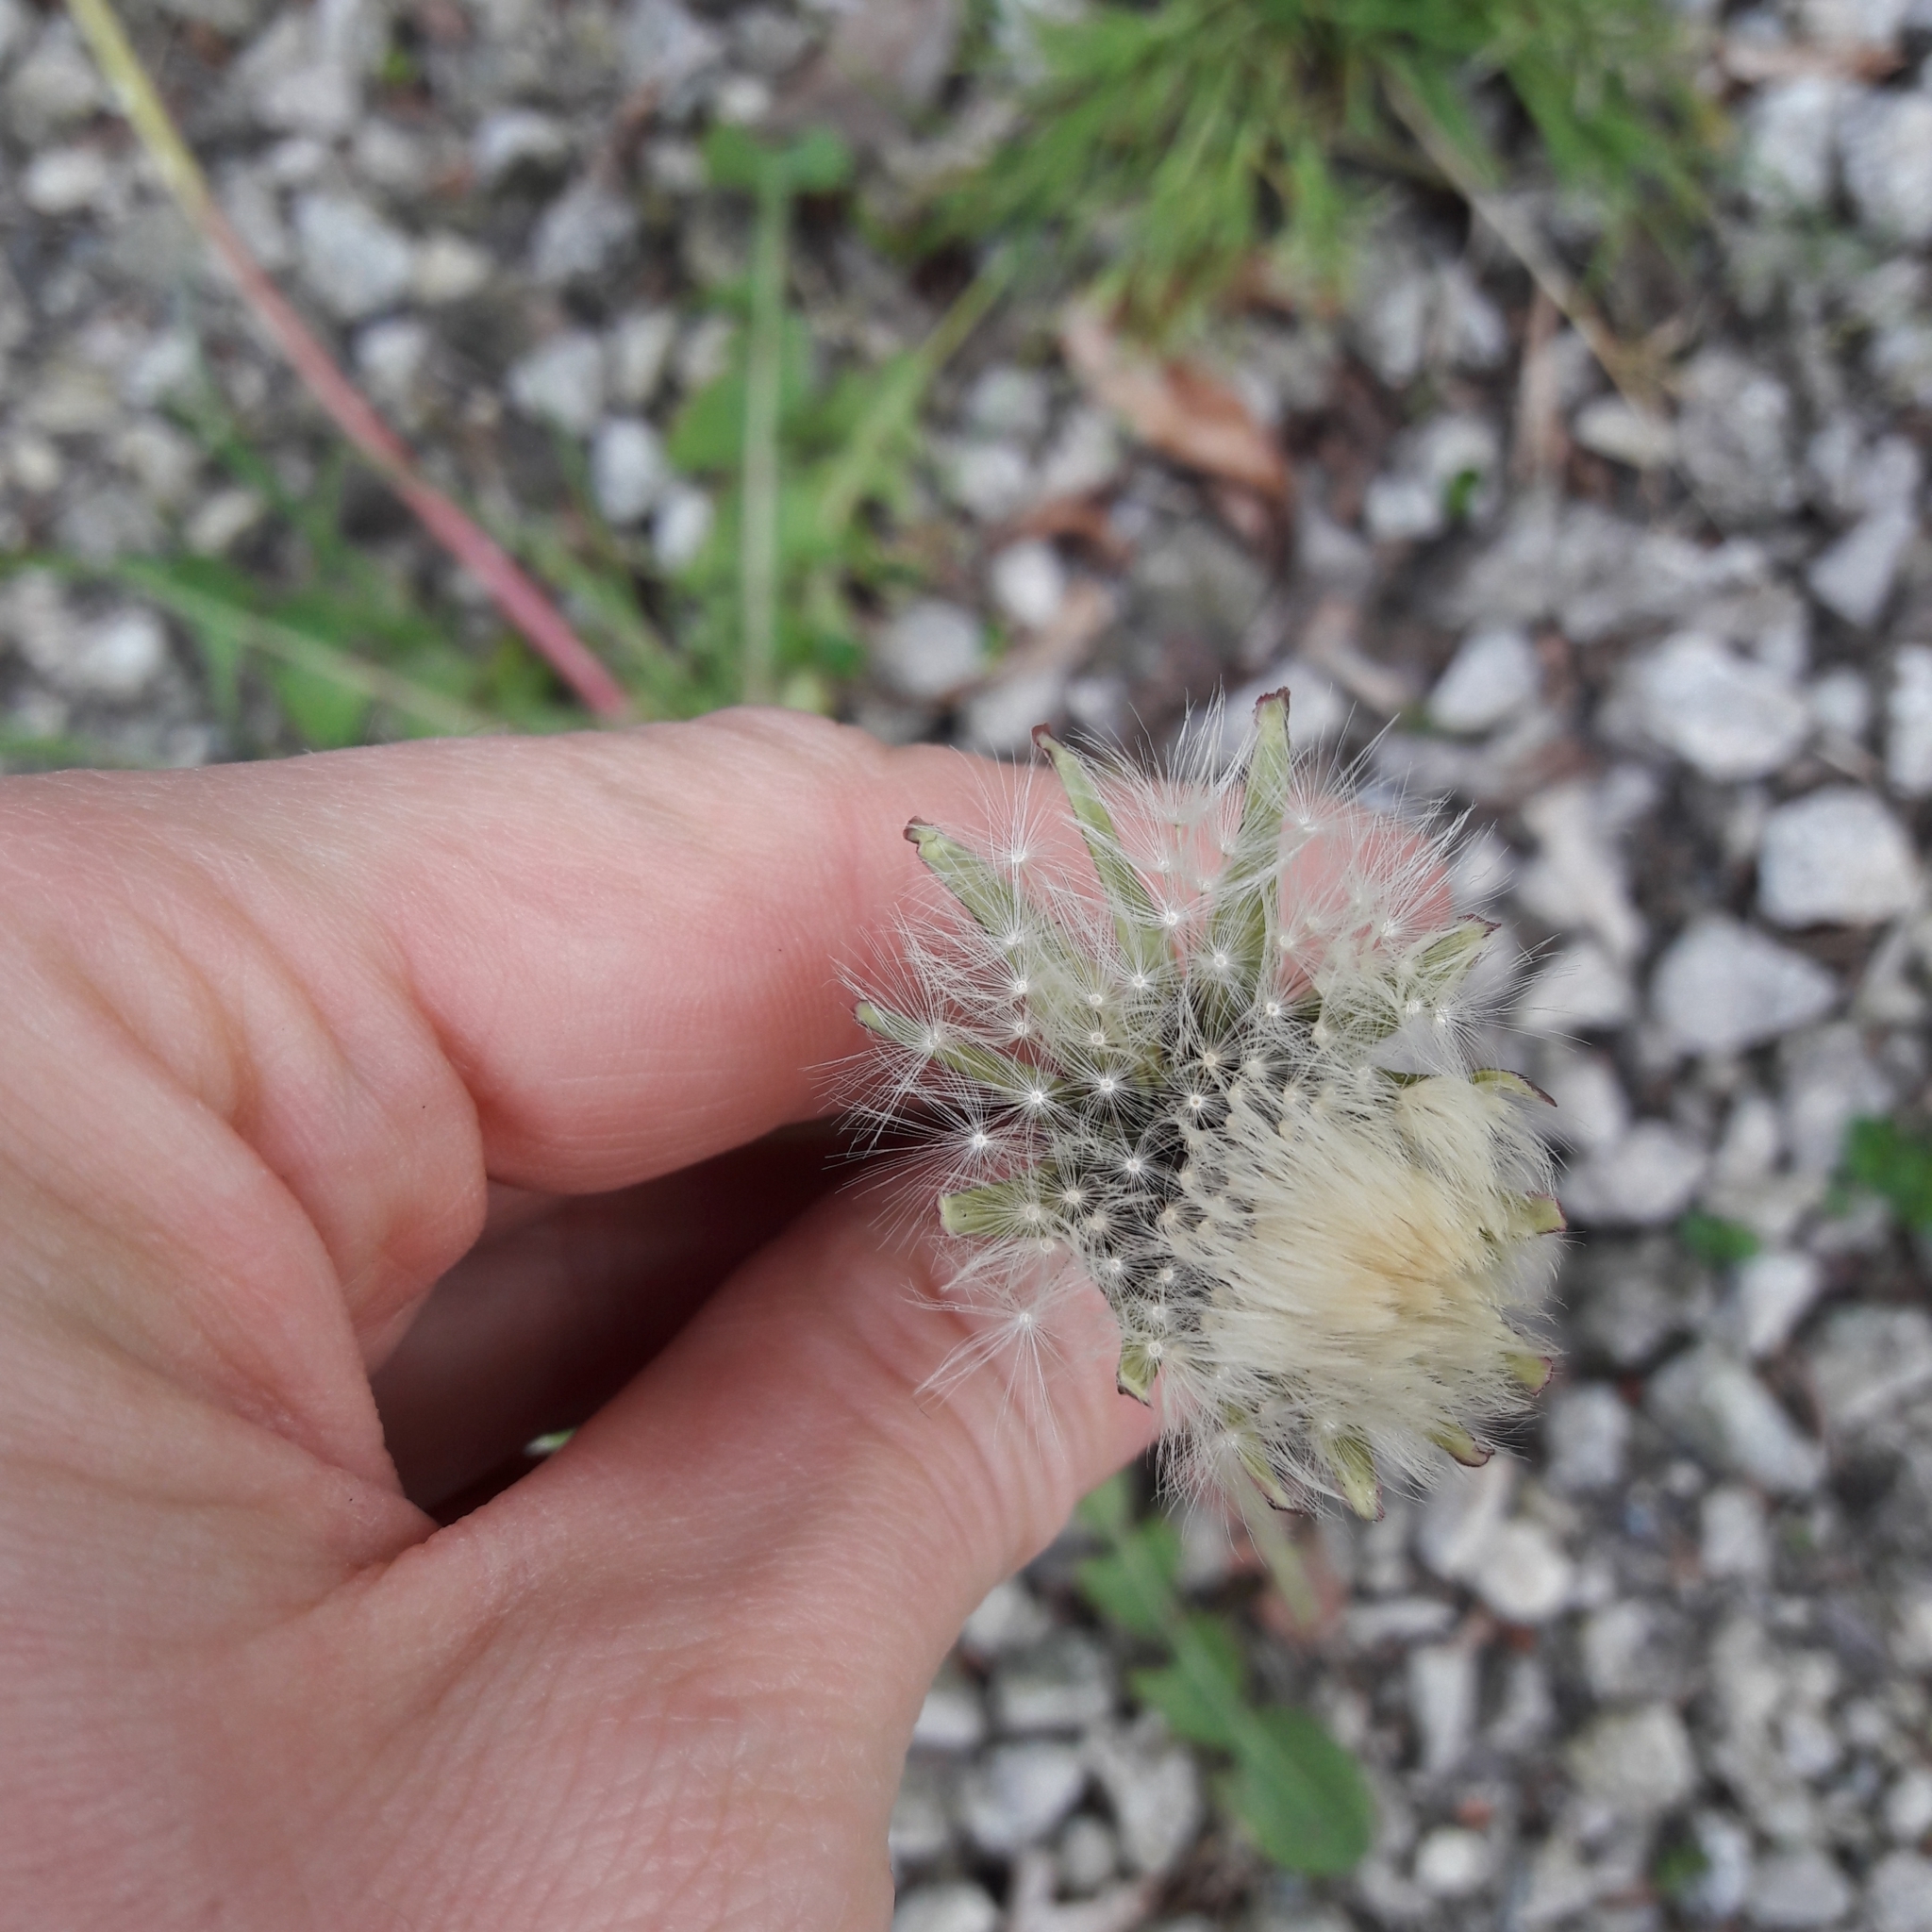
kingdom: Plantae
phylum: Tracheophyta
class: Magnoliopsida
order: Asterales
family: Asteraceae
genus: Taraxacum
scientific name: Taraxacum officinale
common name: Common dandelion
